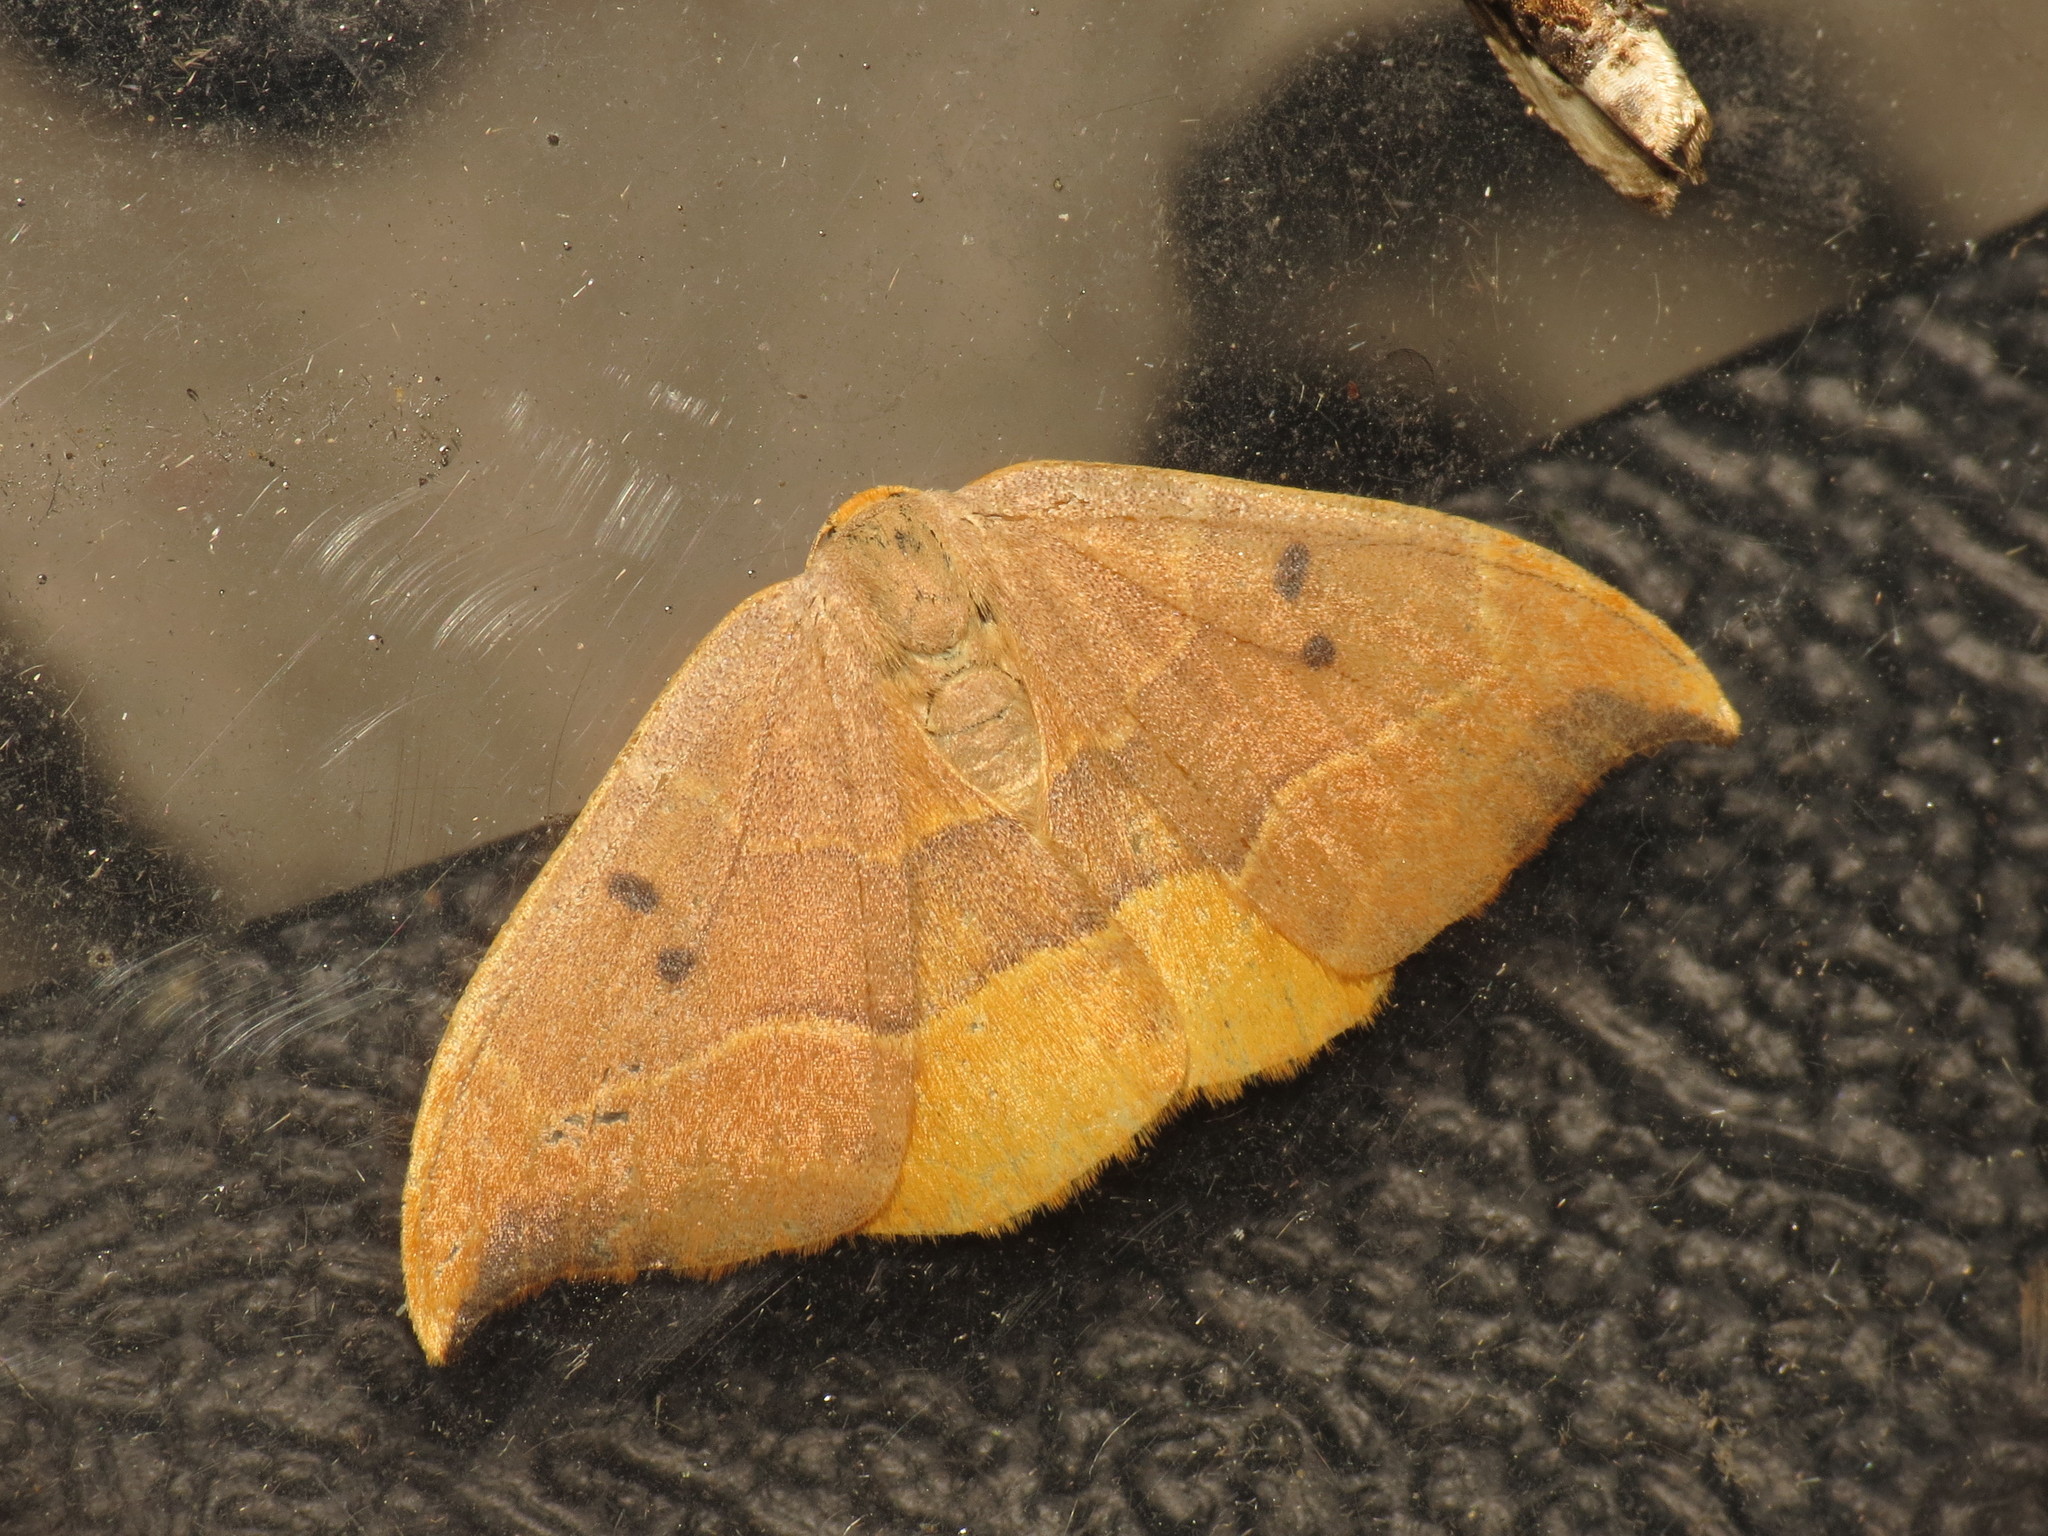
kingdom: Animalia
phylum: Arthropoda
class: Insecta
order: Lepidoptera
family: Drepanidae
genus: Watsonalla
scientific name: Watsonalla binaria
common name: Oak hook-tip
